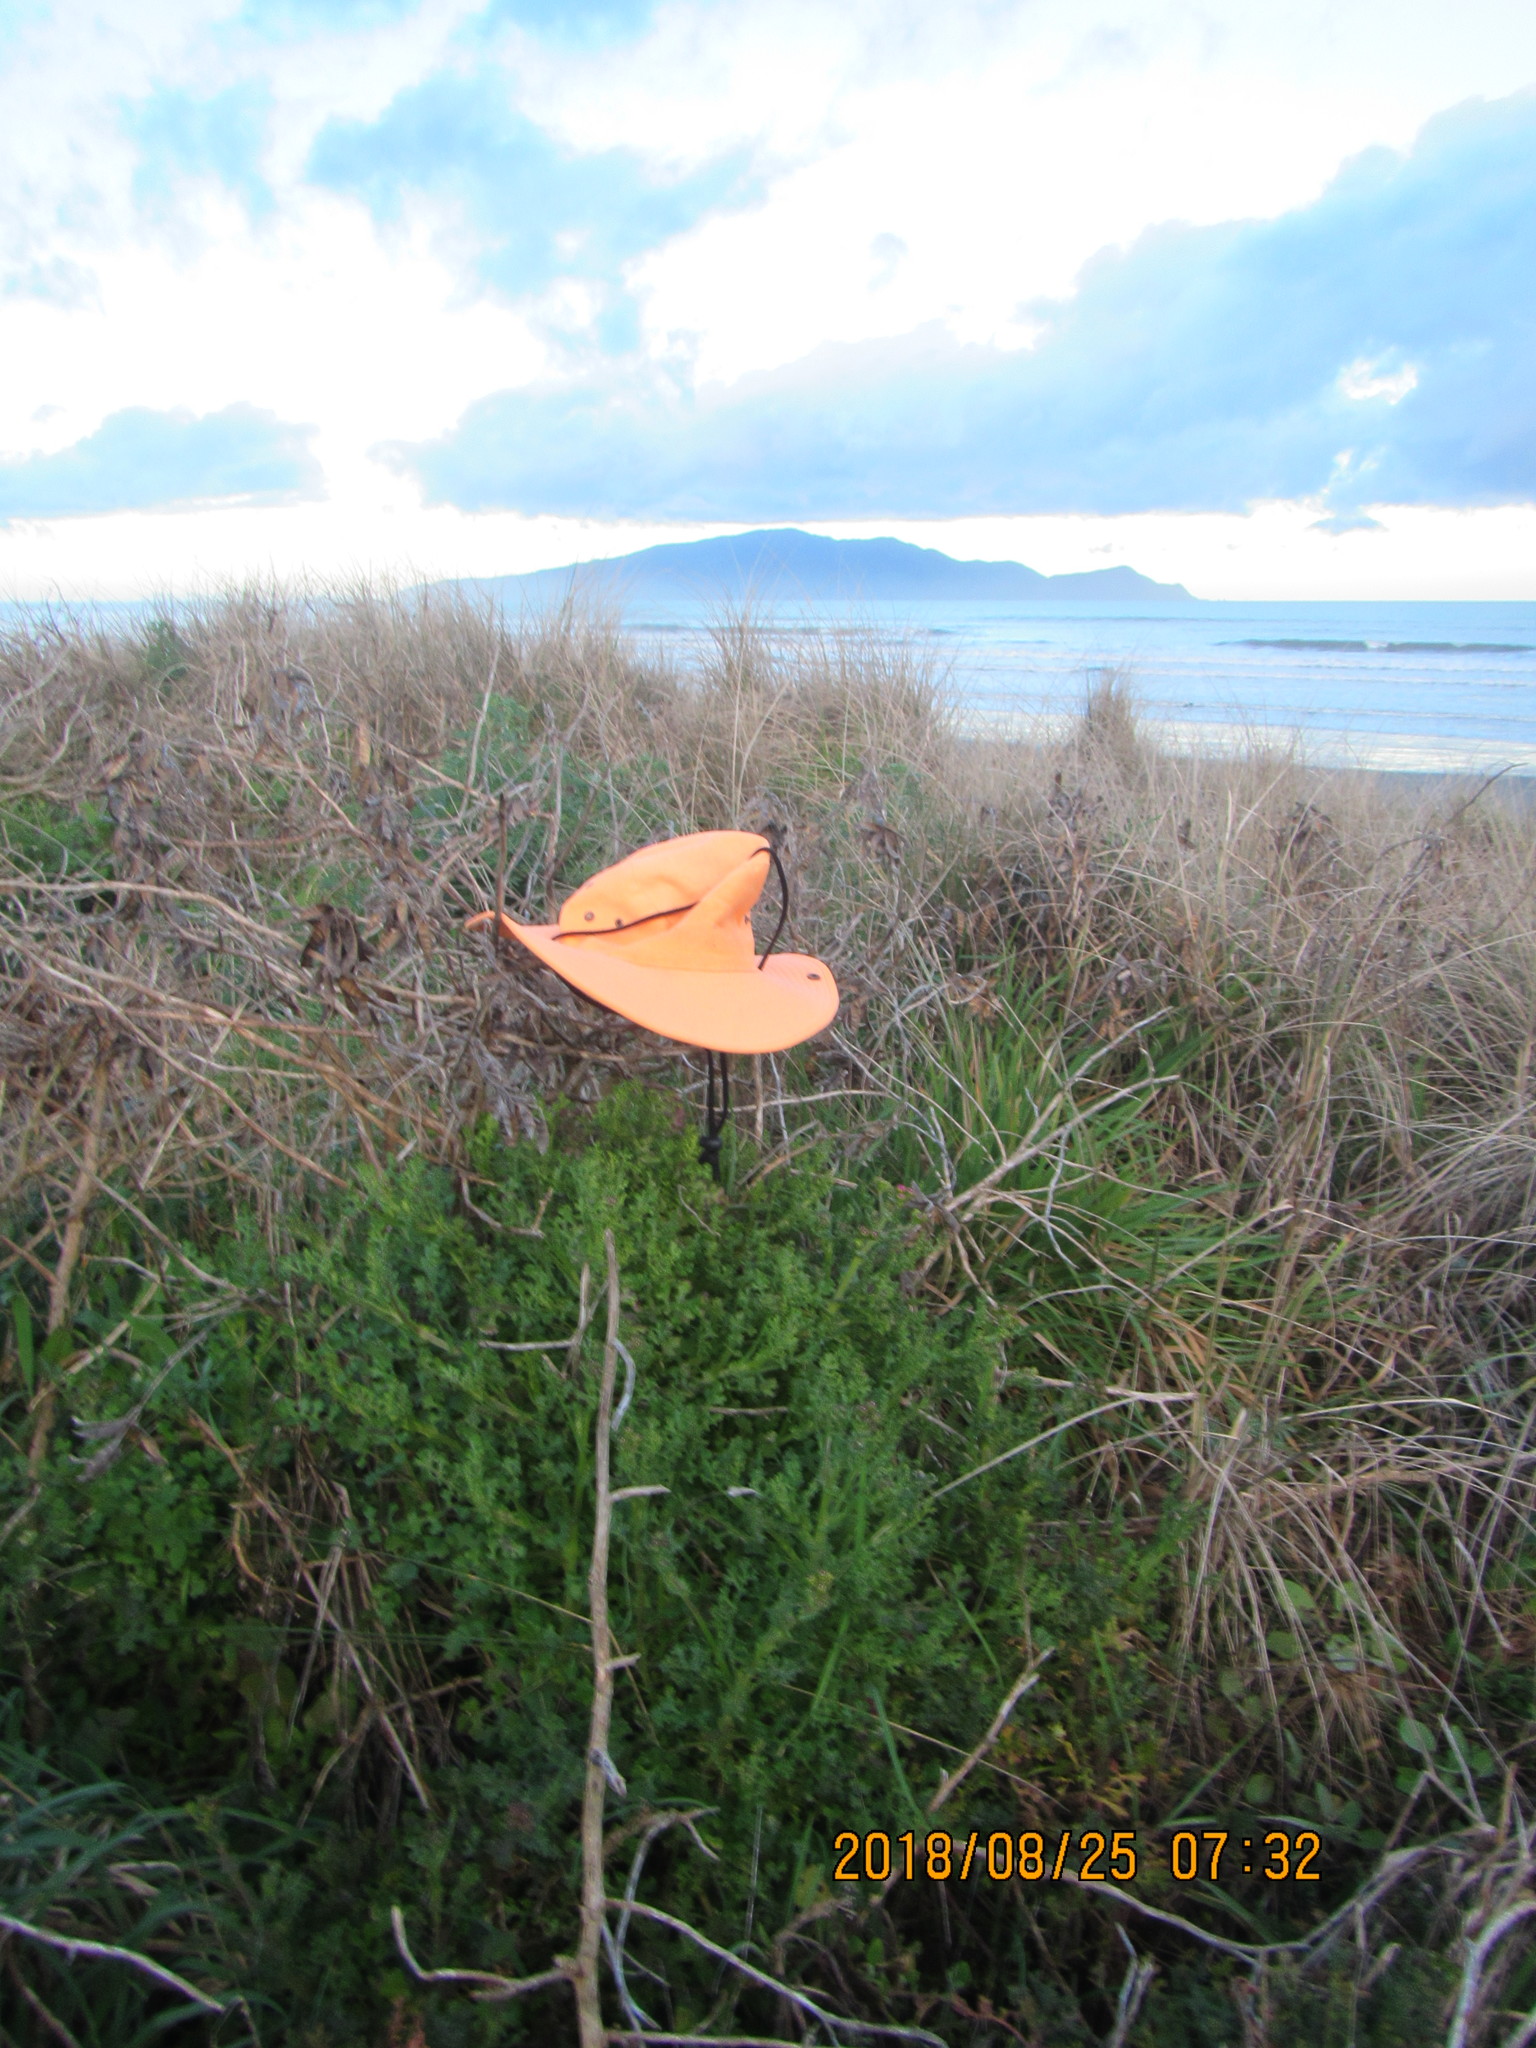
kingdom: Plantae
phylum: Tracheophyta
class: Magnoliopsida
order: Asterales
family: Asteraceae
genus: Senecio
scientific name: Senecio elegans
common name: Purple groundsel
